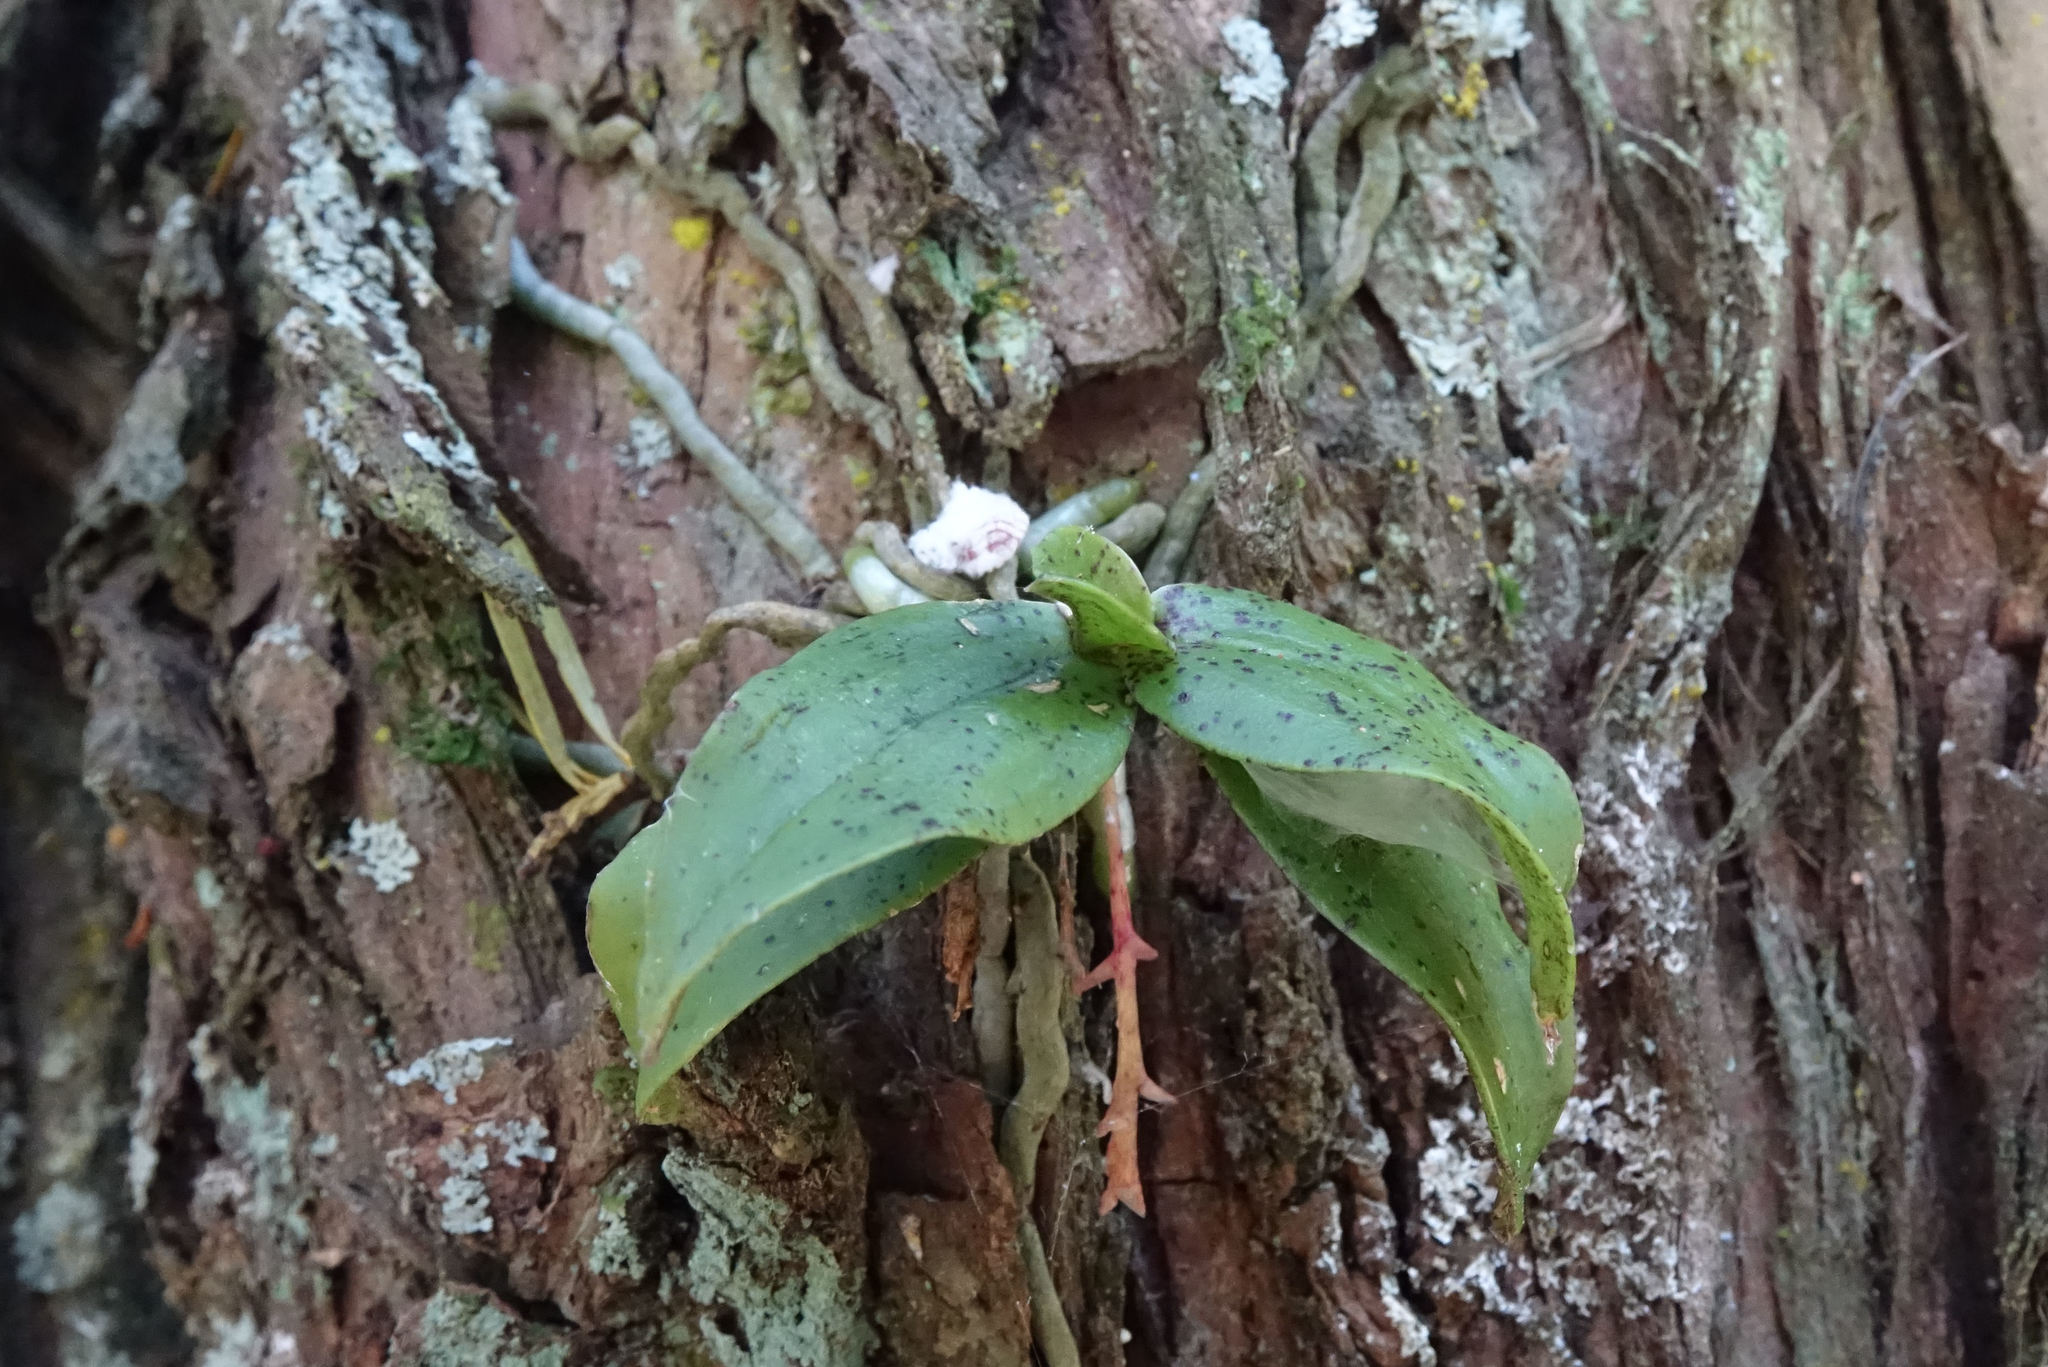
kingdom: Plantae
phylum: Tracheophyta
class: Liliopsida
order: Asparagales
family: Orchidaceae
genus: Drymoanthus
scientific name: Drymoanthus flavus
